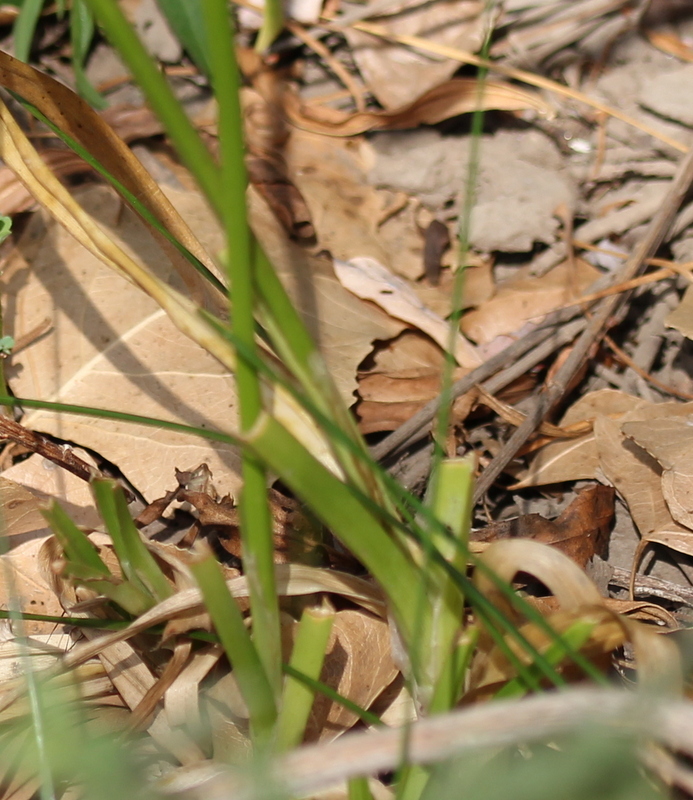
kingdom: Plantae
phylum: Tracheophyta
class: Liliopsida
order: Poales
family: Cyperaceae
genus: Cyperus
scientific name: Cyperus eragrostis
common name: Tall flatsedge
